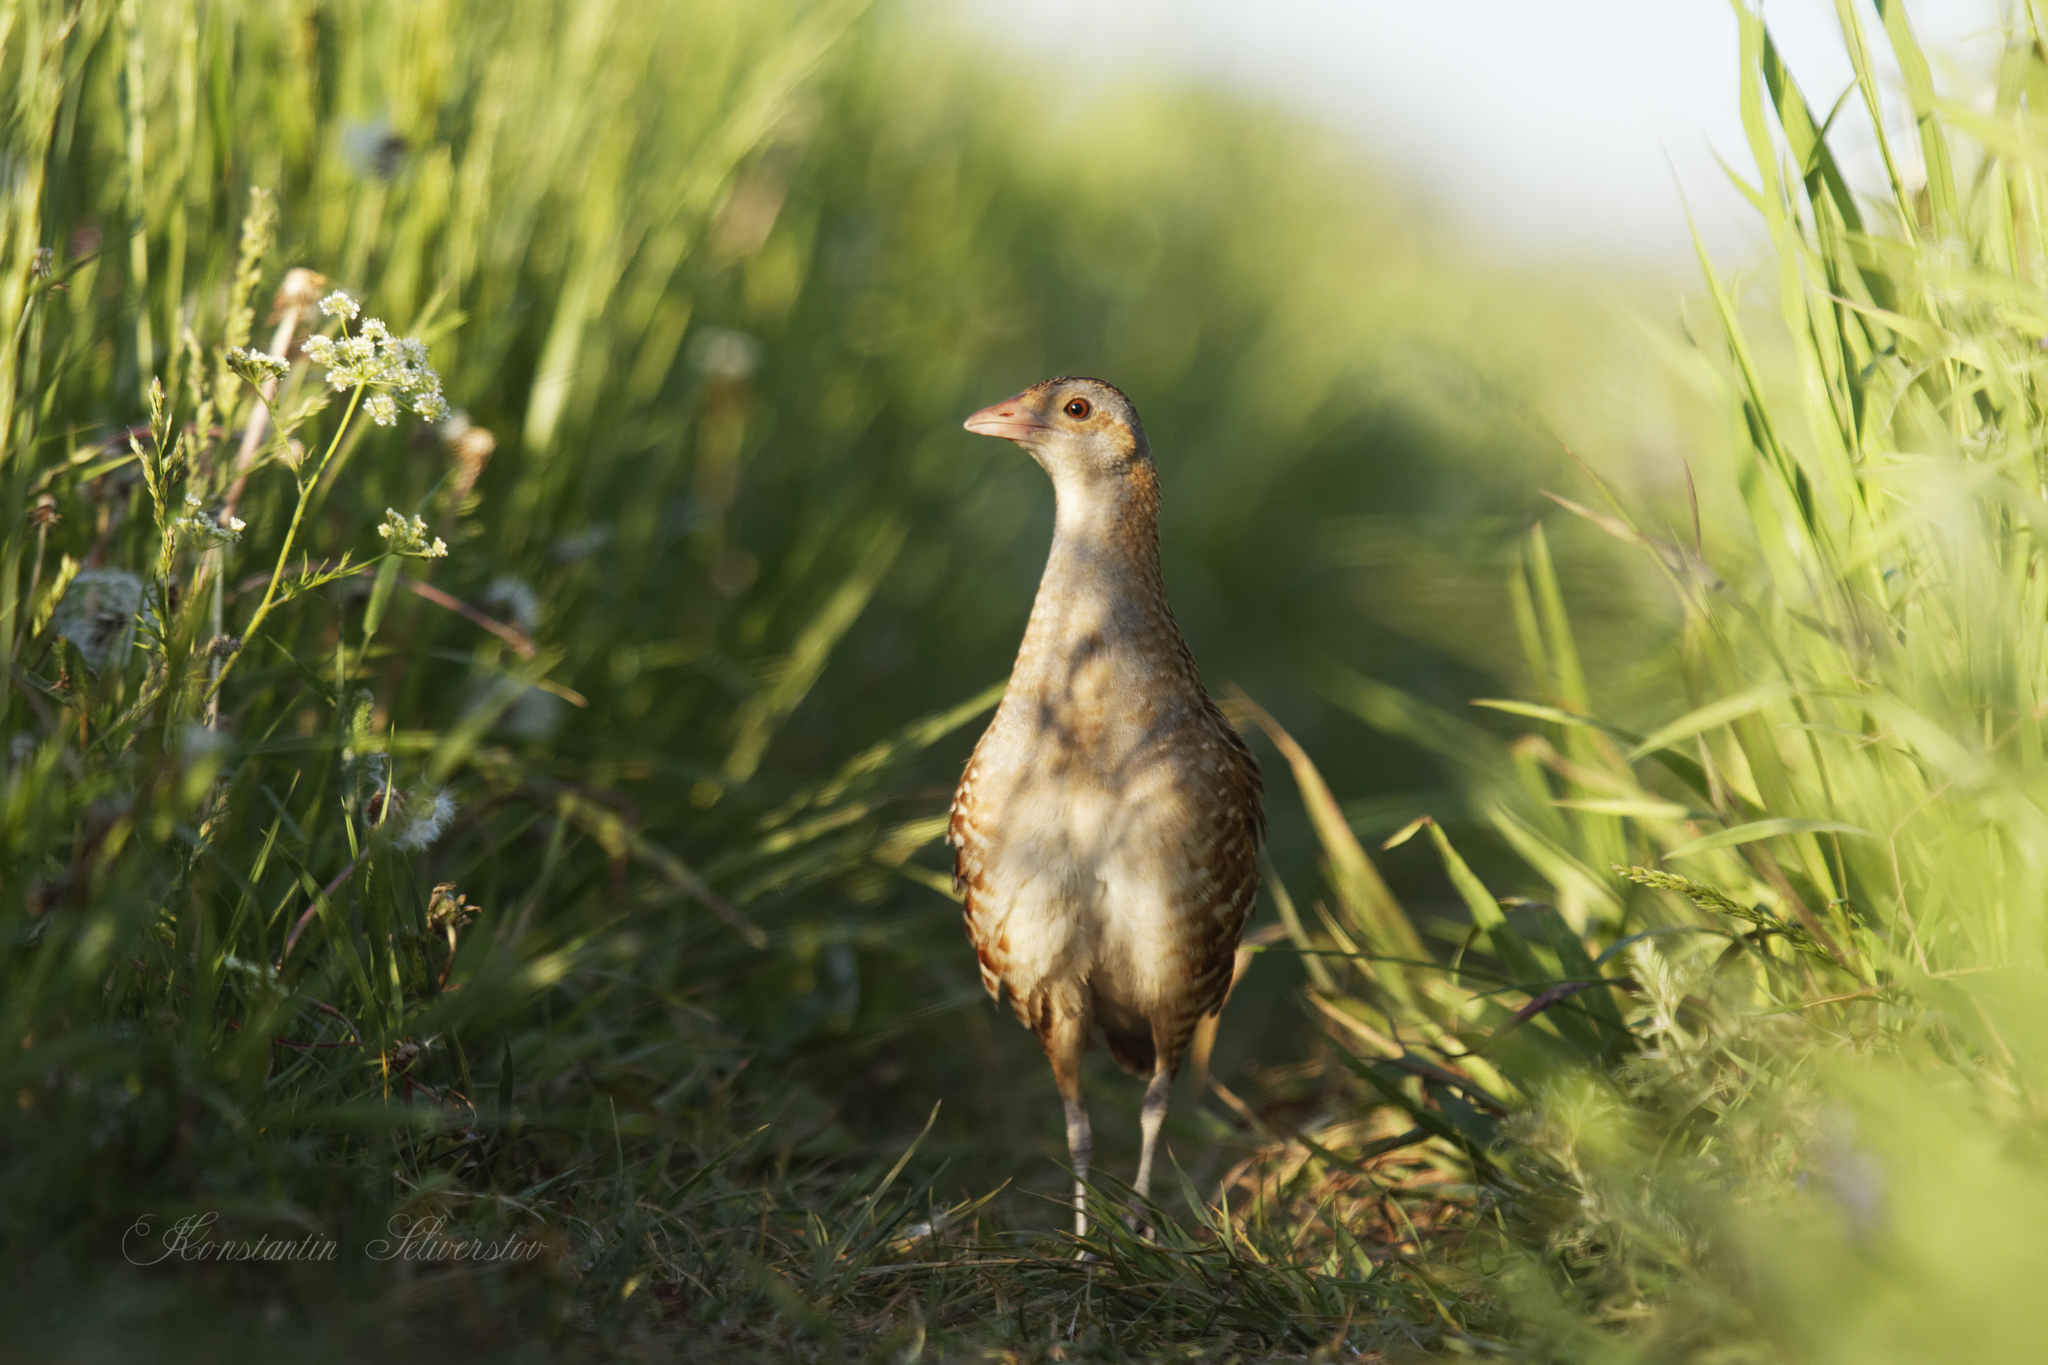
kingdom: Animalia
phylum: Chordata
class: Aves
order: Gruiformes
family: Rallidae
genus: Crex
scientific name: Crex crex
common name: Corn crake
